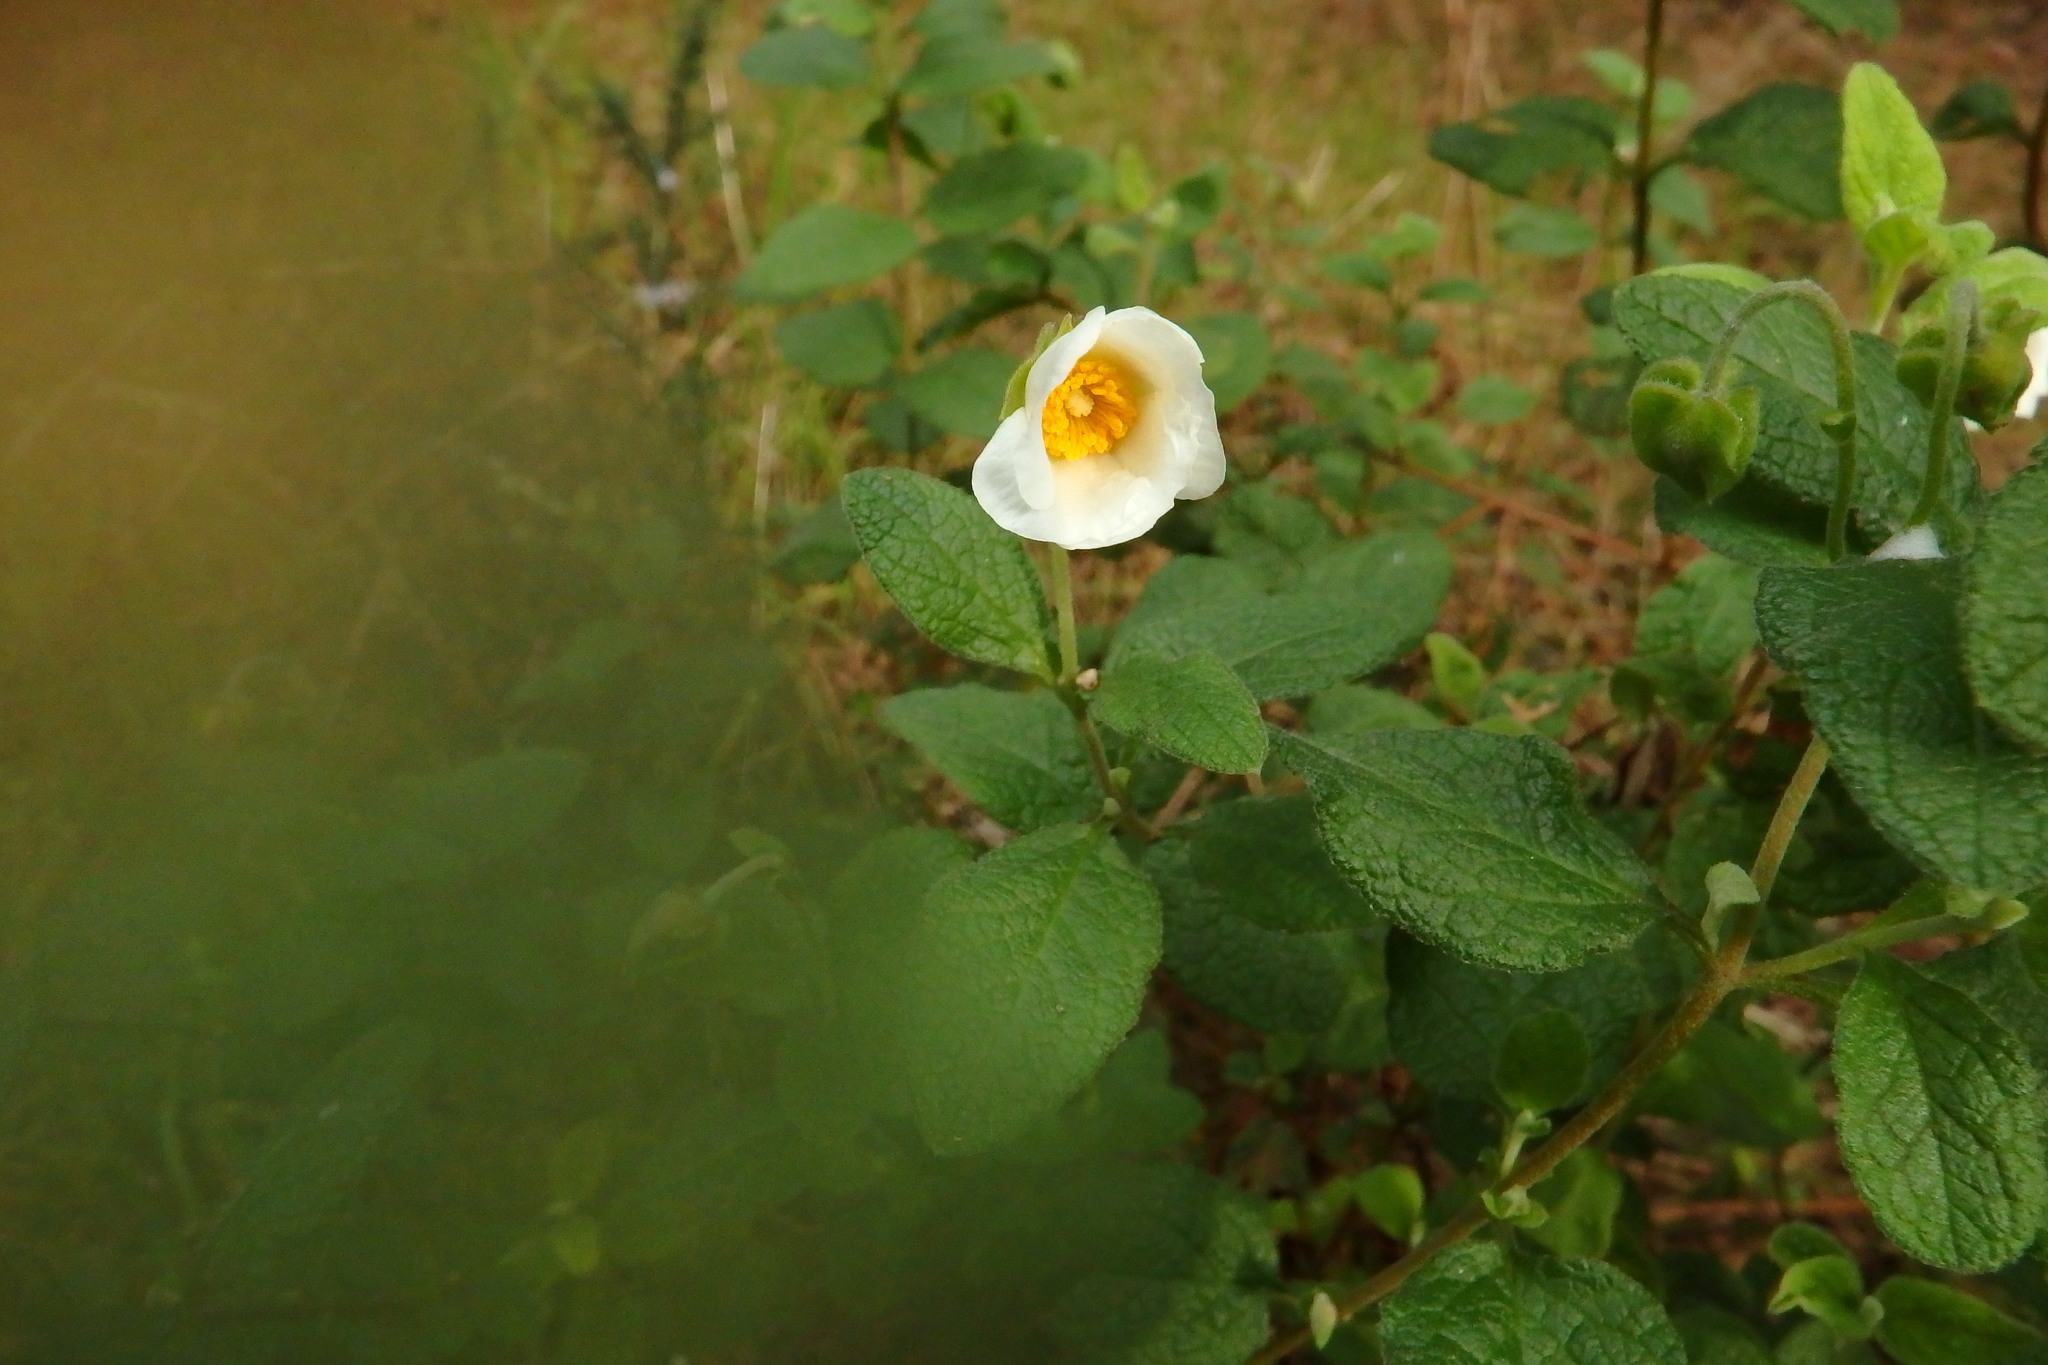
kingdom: Plantae
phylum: Tracheophyta
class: Magnoliopsida
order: Malvales
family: Cistaceae
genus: Cistus
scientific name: Cistus salviifolius
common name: Salvia cistus
